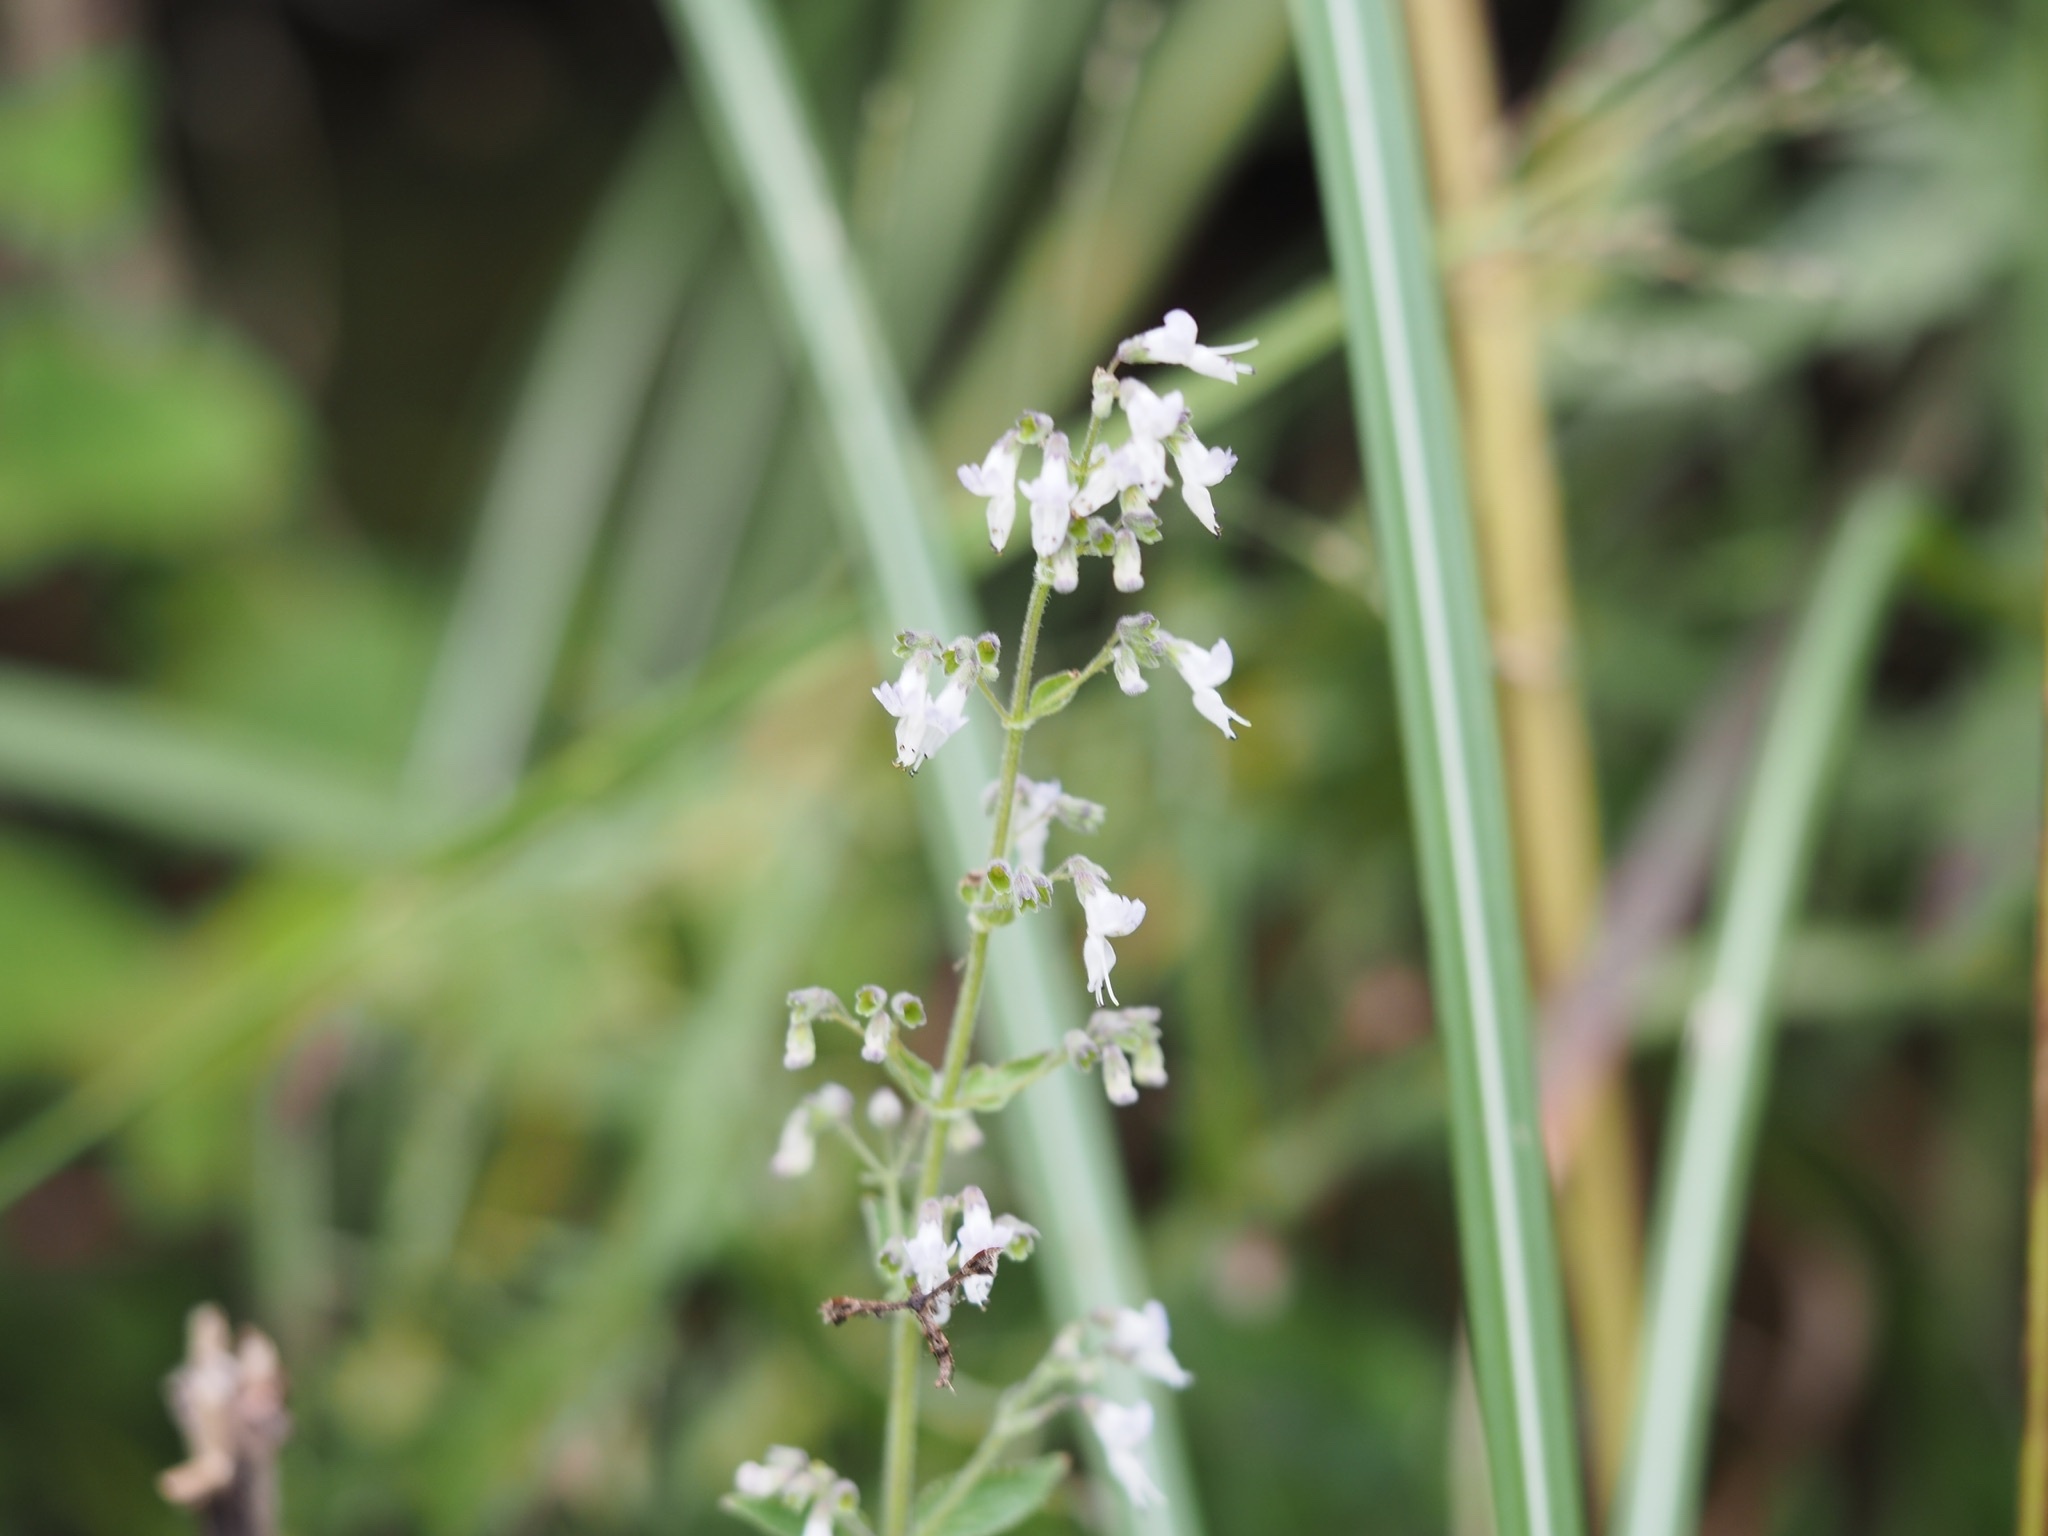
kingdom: Plantae
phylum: Tracheophyta
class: Magnoliopsida
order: Lamiales
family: Lamiaceae
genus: Isodon
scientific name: Isodon japonicus
